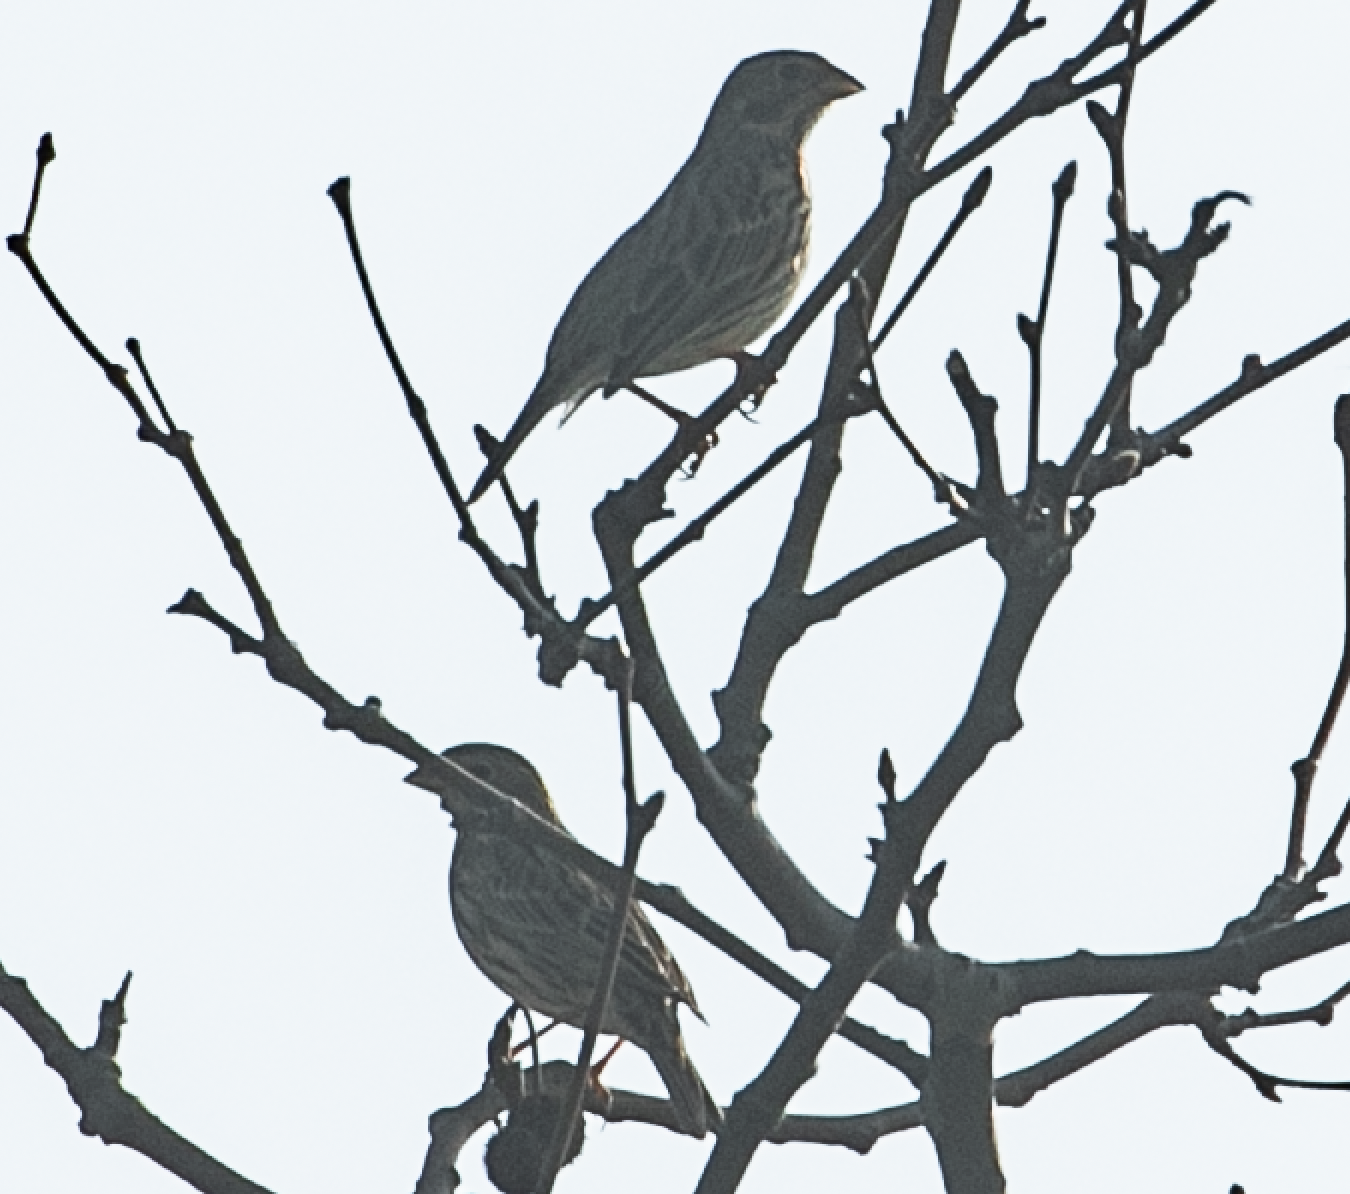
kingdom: Animalia
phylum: Chordata
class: Aves
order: Passeriformes
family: Emberizidae
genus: Emberiza
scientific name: Emberiza calandra
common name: Corn bunting
